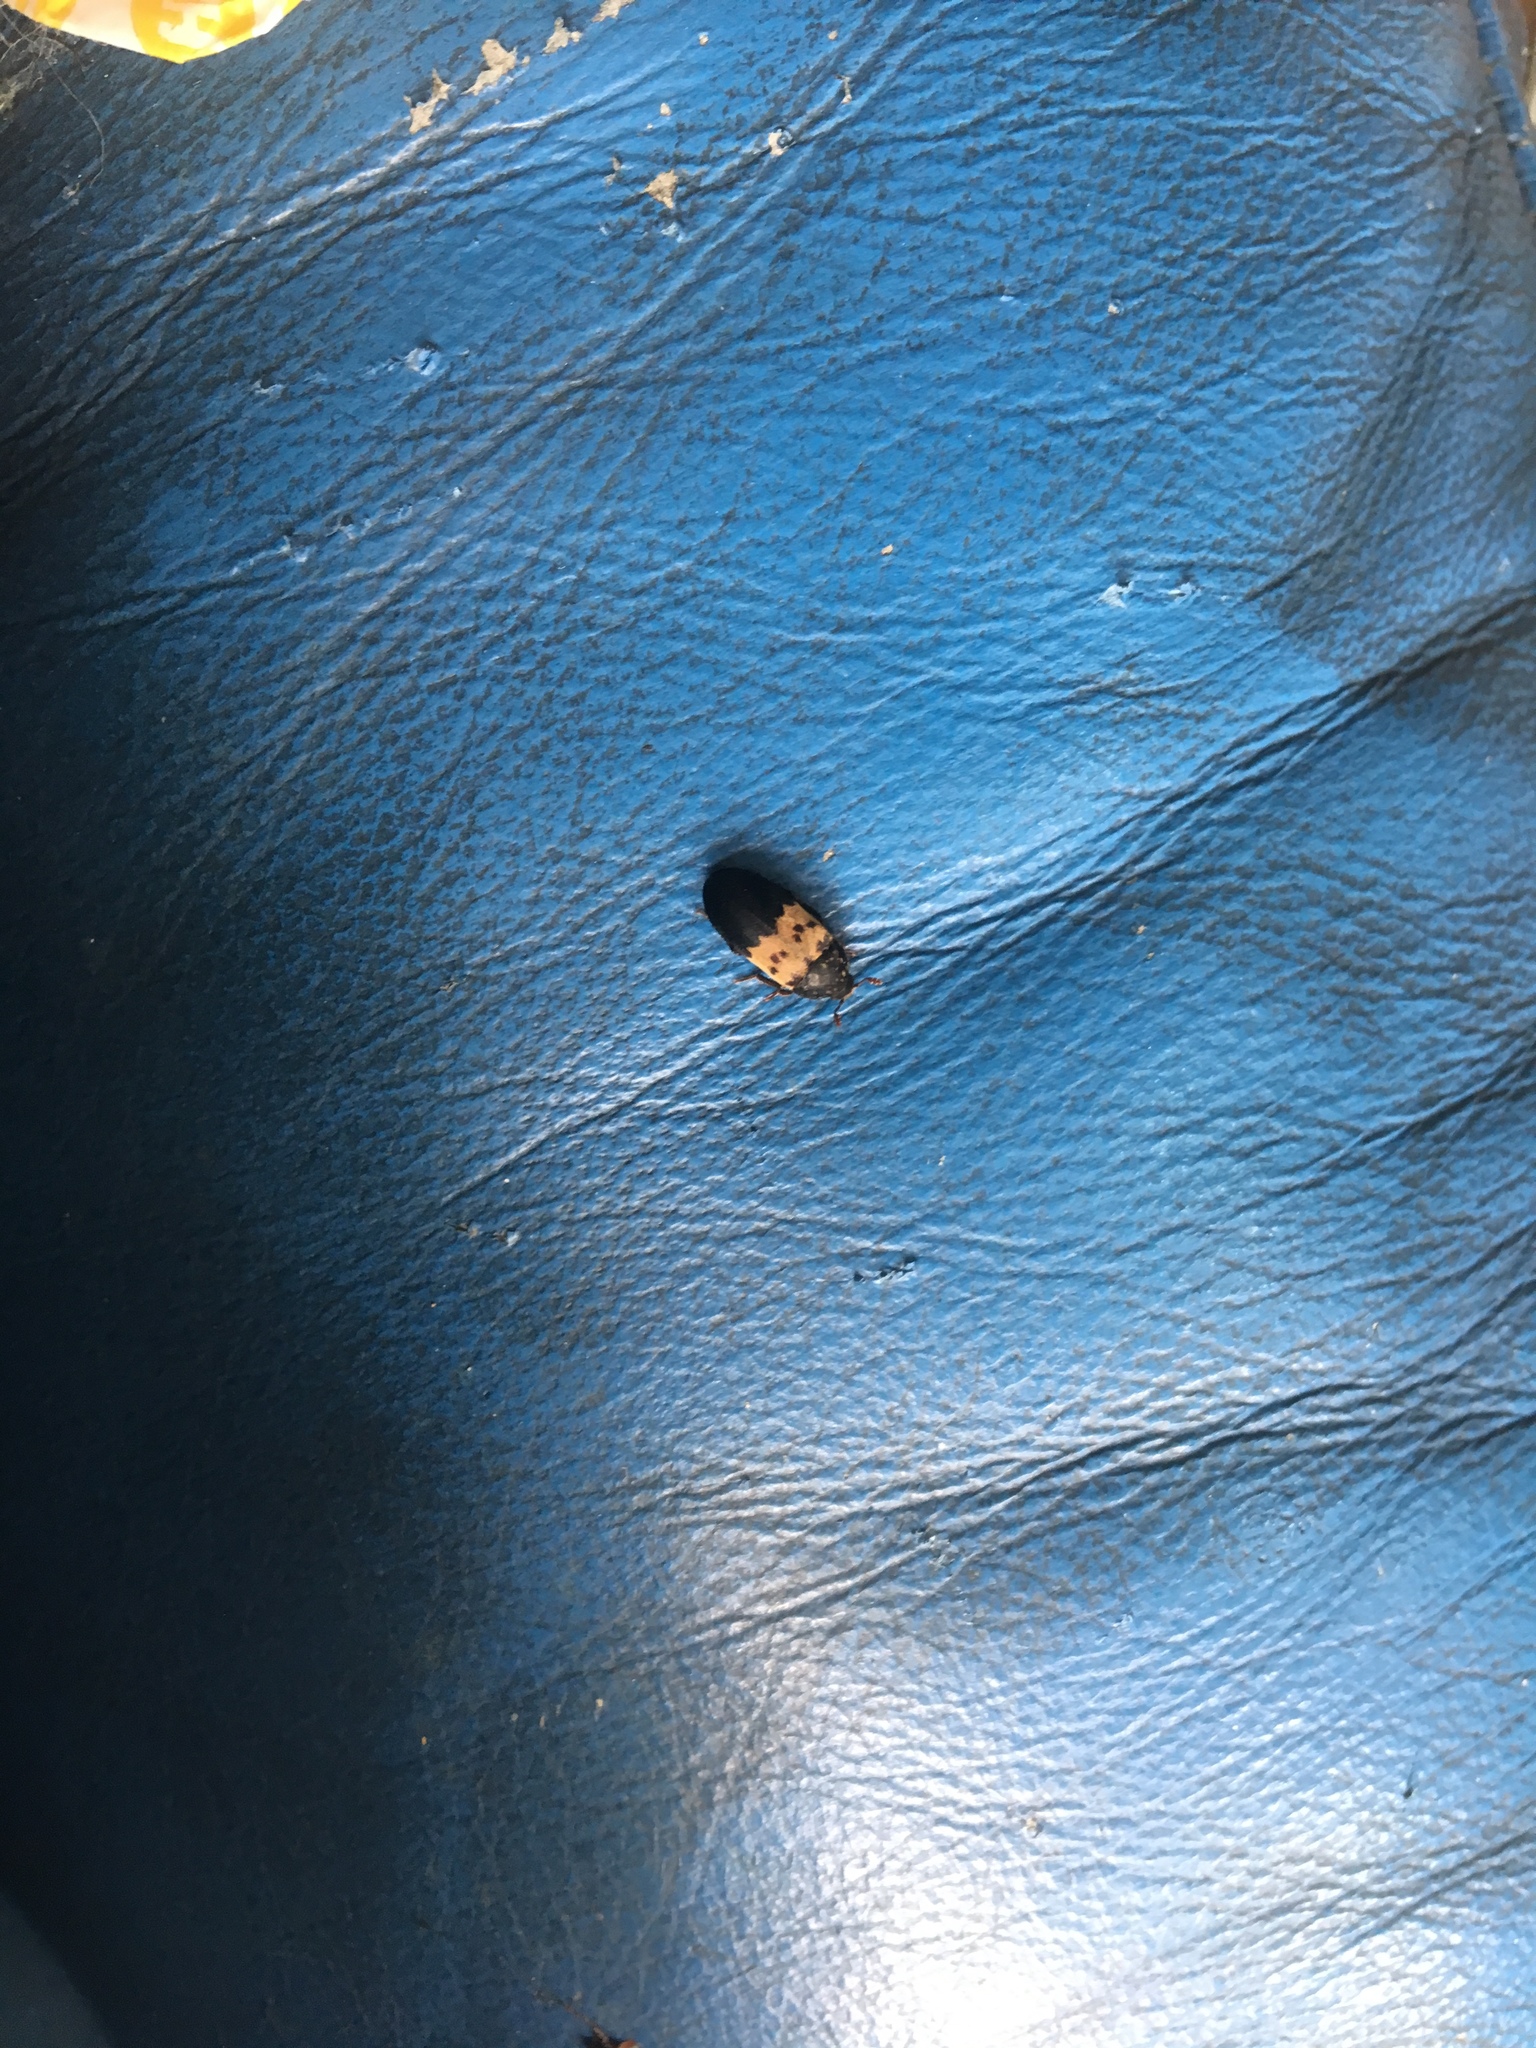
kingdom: Animalia
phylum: Arthropoda
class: Insecta
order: Coleoptera
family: Dermestidae
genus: Dermestes
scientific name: Dermestes lardarius
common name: Larder beetle
